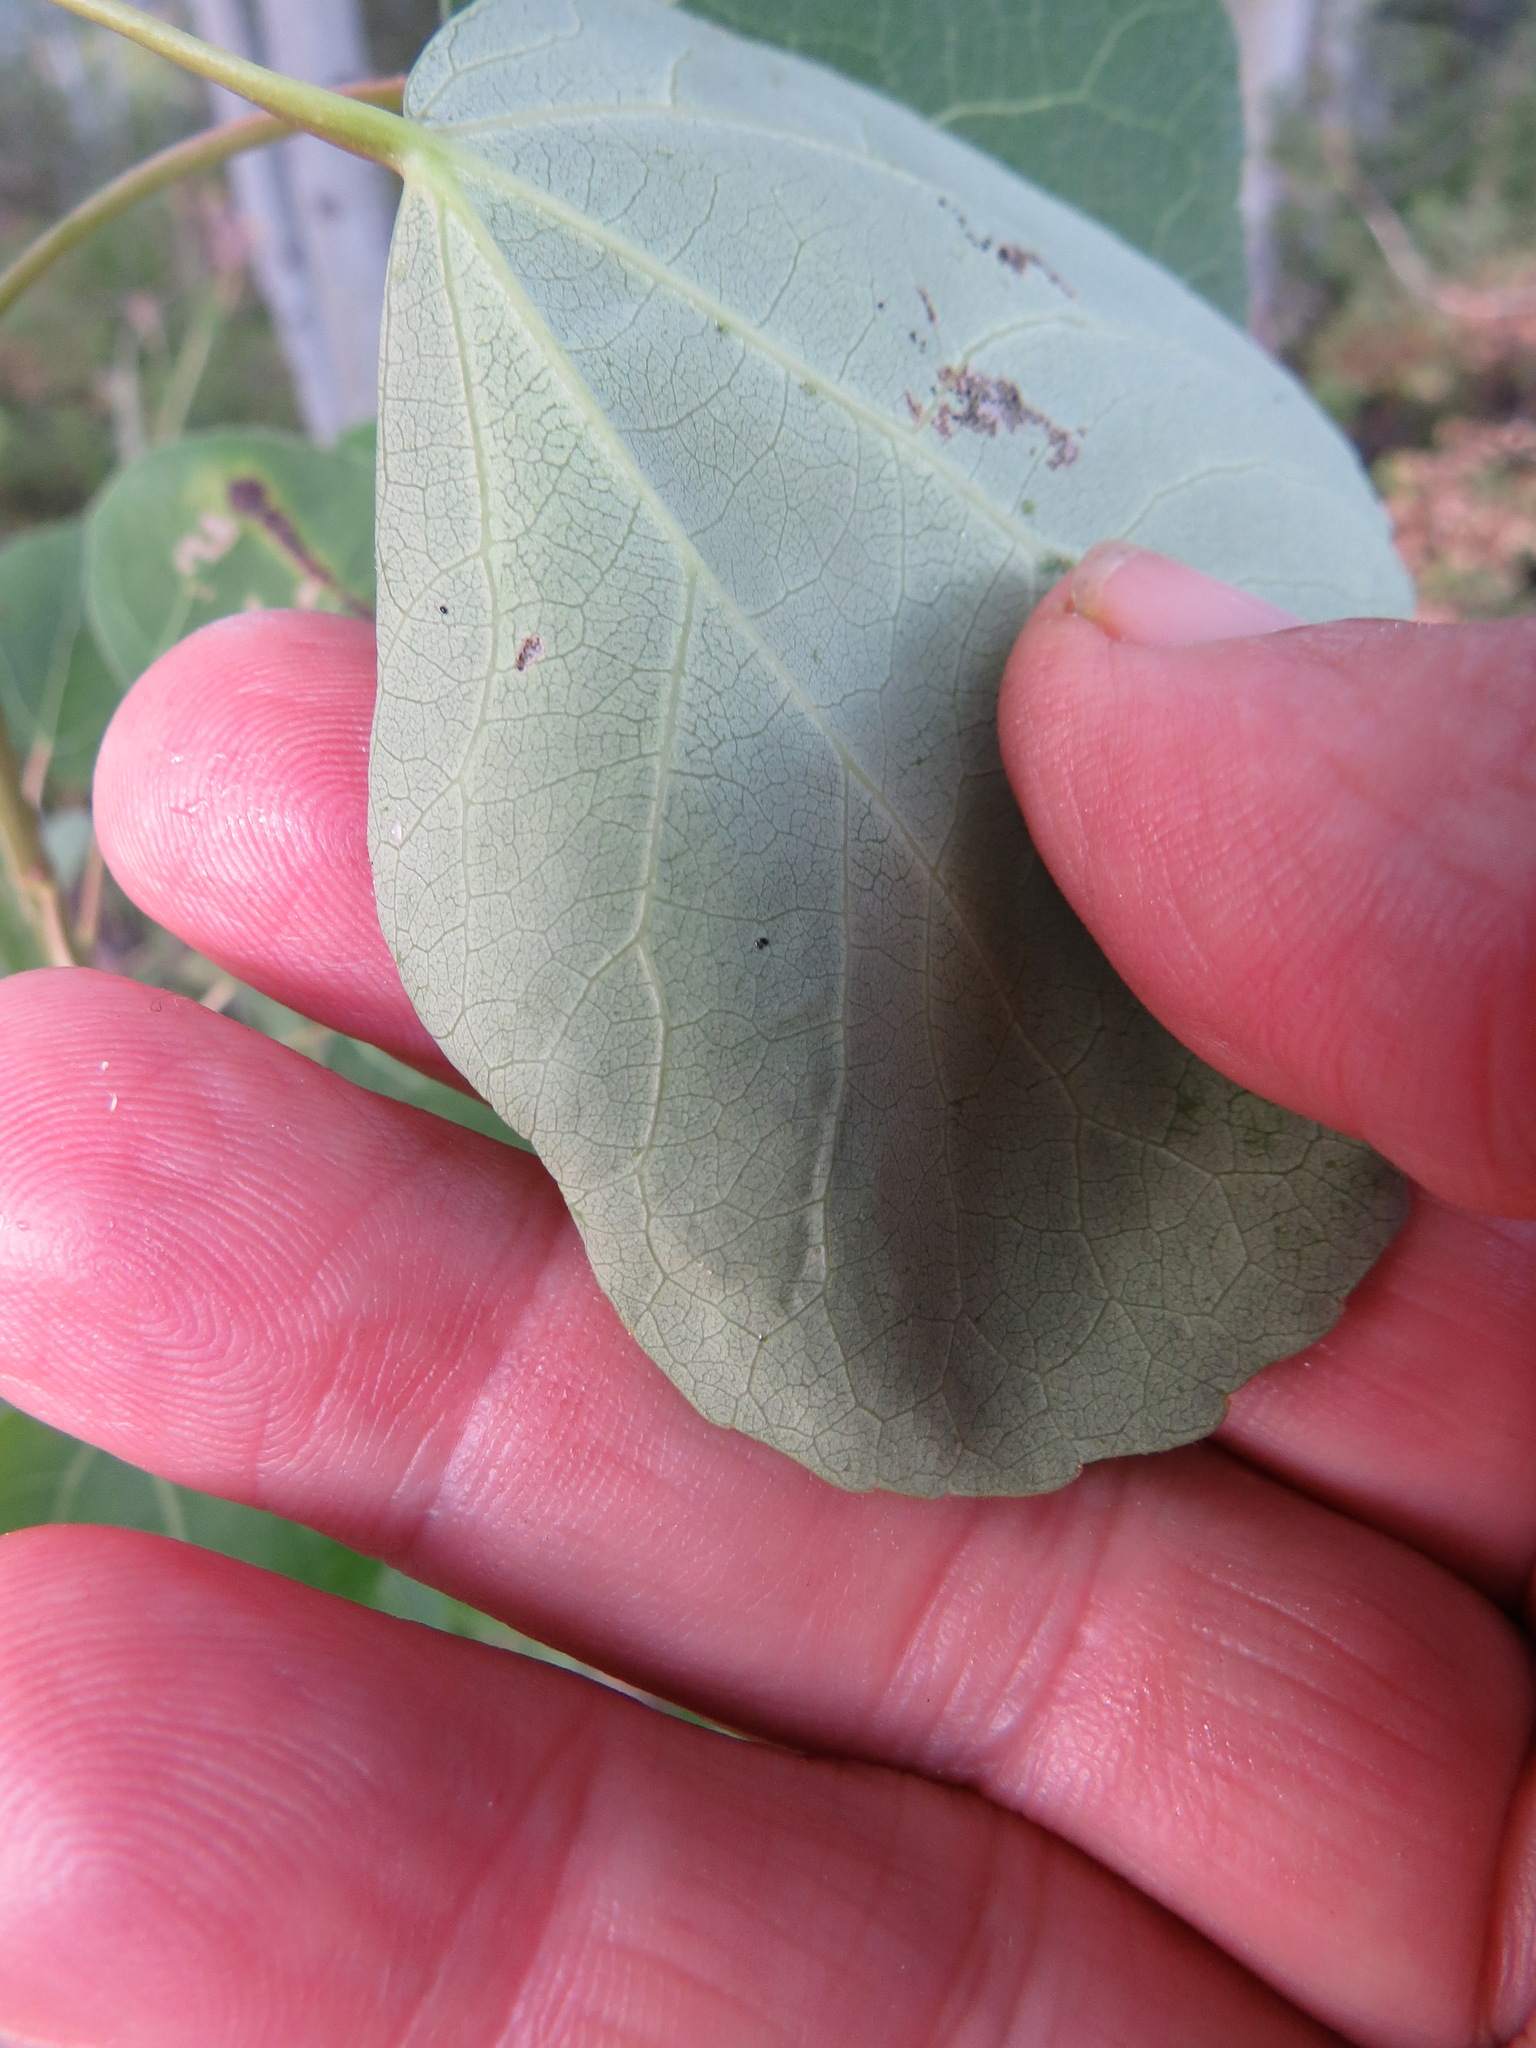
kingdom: Animalia
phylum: Arthropoda
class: Insecta
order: Lepidoptera
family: Gracillariidae
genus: Phyllocnistis
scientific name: Phyllocnistis populiella
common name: Aspen serpentine leafminer moth
